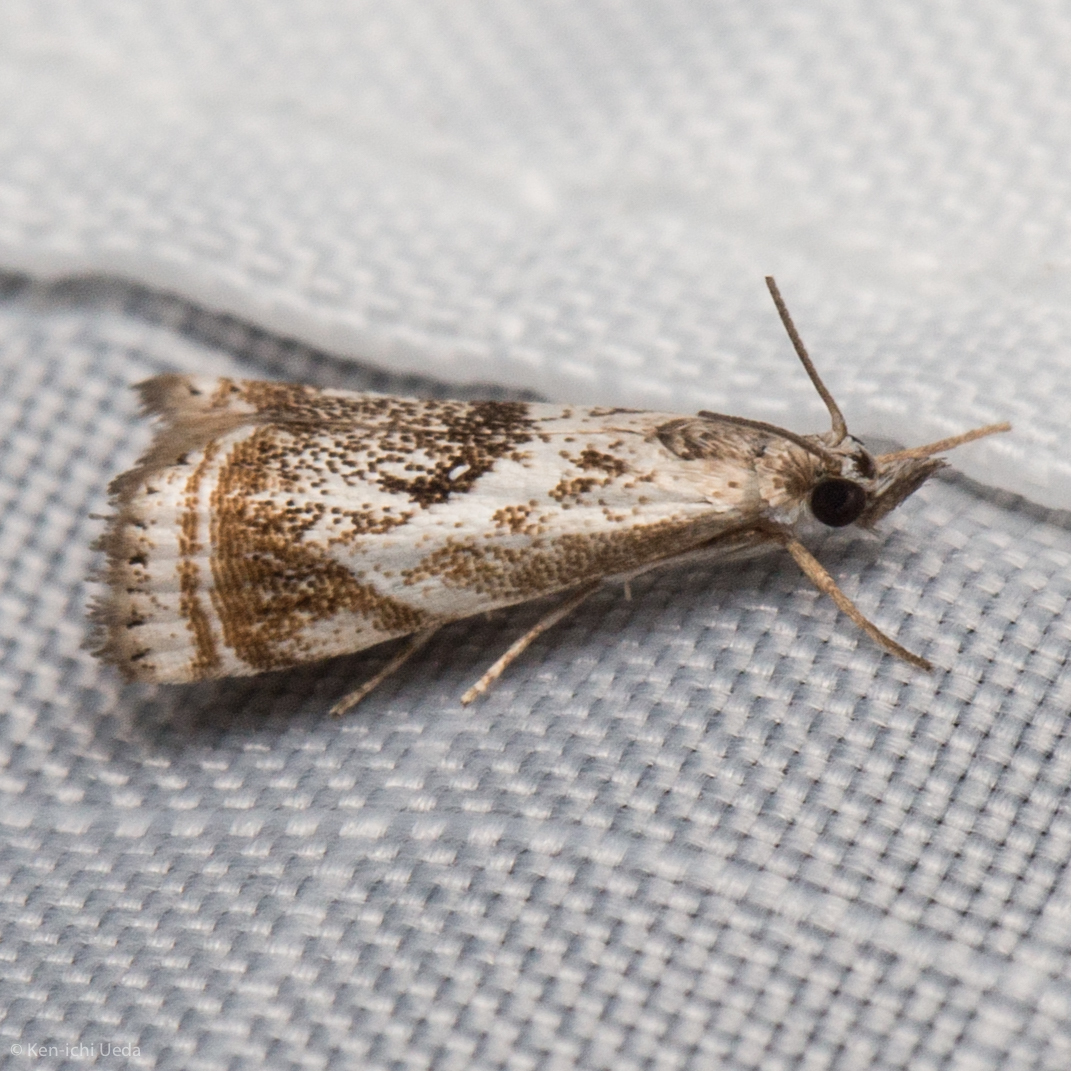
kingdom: Animalia
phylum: Arthropoda
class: Insecta
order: Lepidoptera
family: Crambidae
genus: Microcrambus
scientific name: Microcrambus elegans
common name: Elegant grass-veneer
